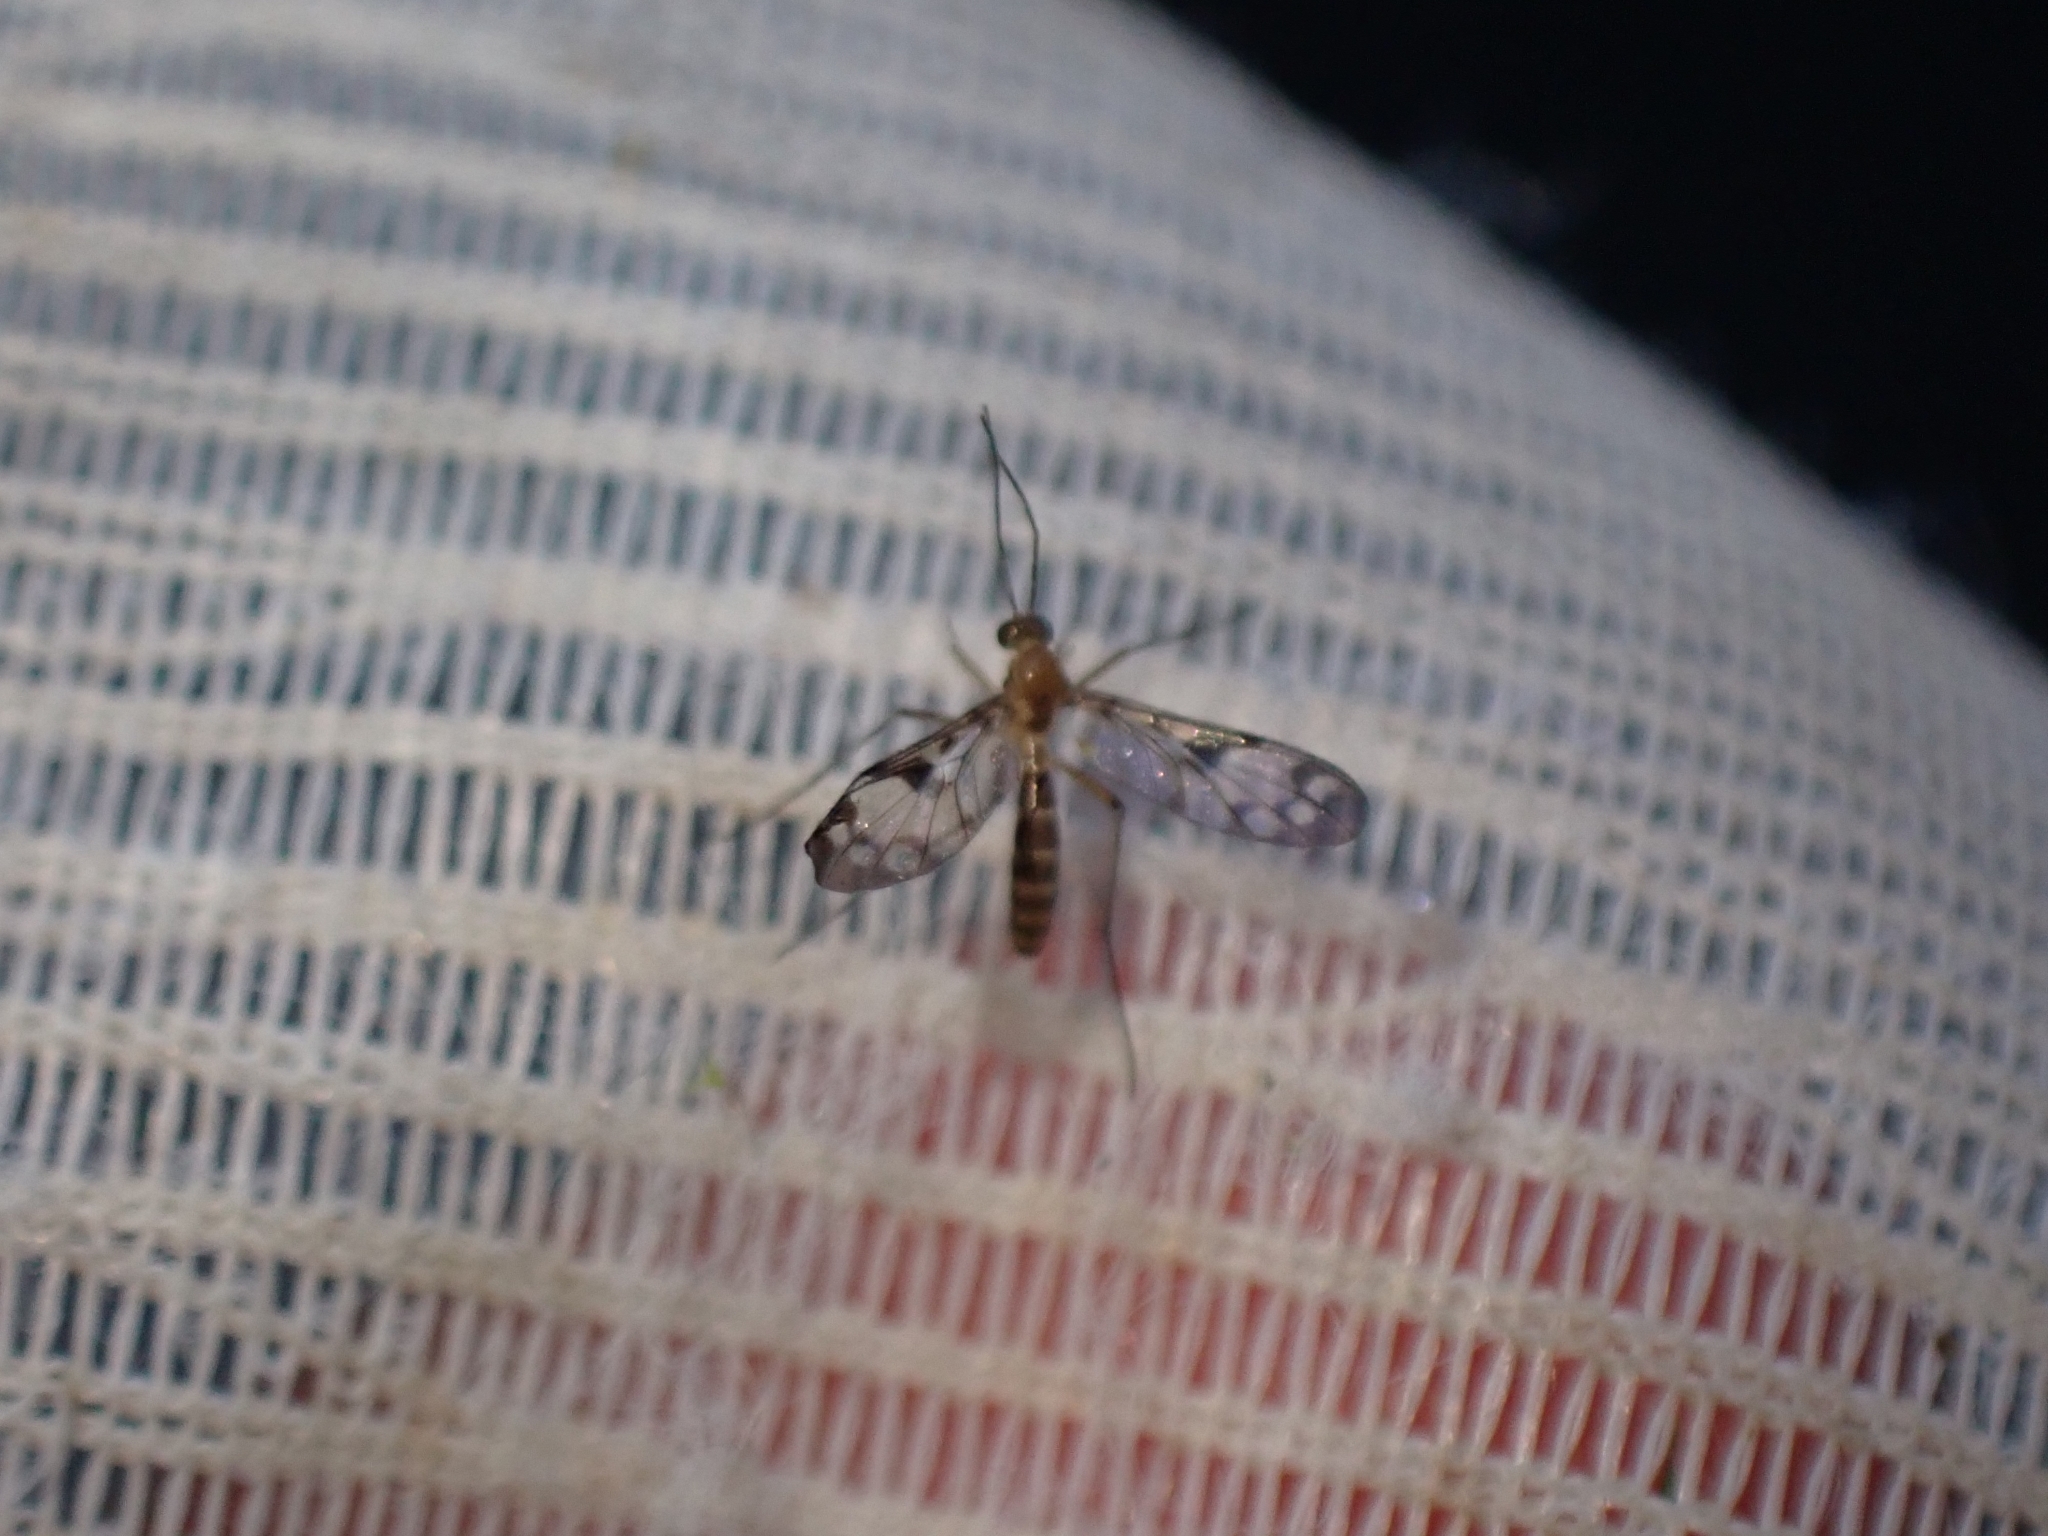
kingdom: Animalia
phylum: Arthropoda
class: Insecta
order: Diptera
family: Keroplatidae
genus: Chiasmoneura
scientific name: Chiasmoneura fenestrata
